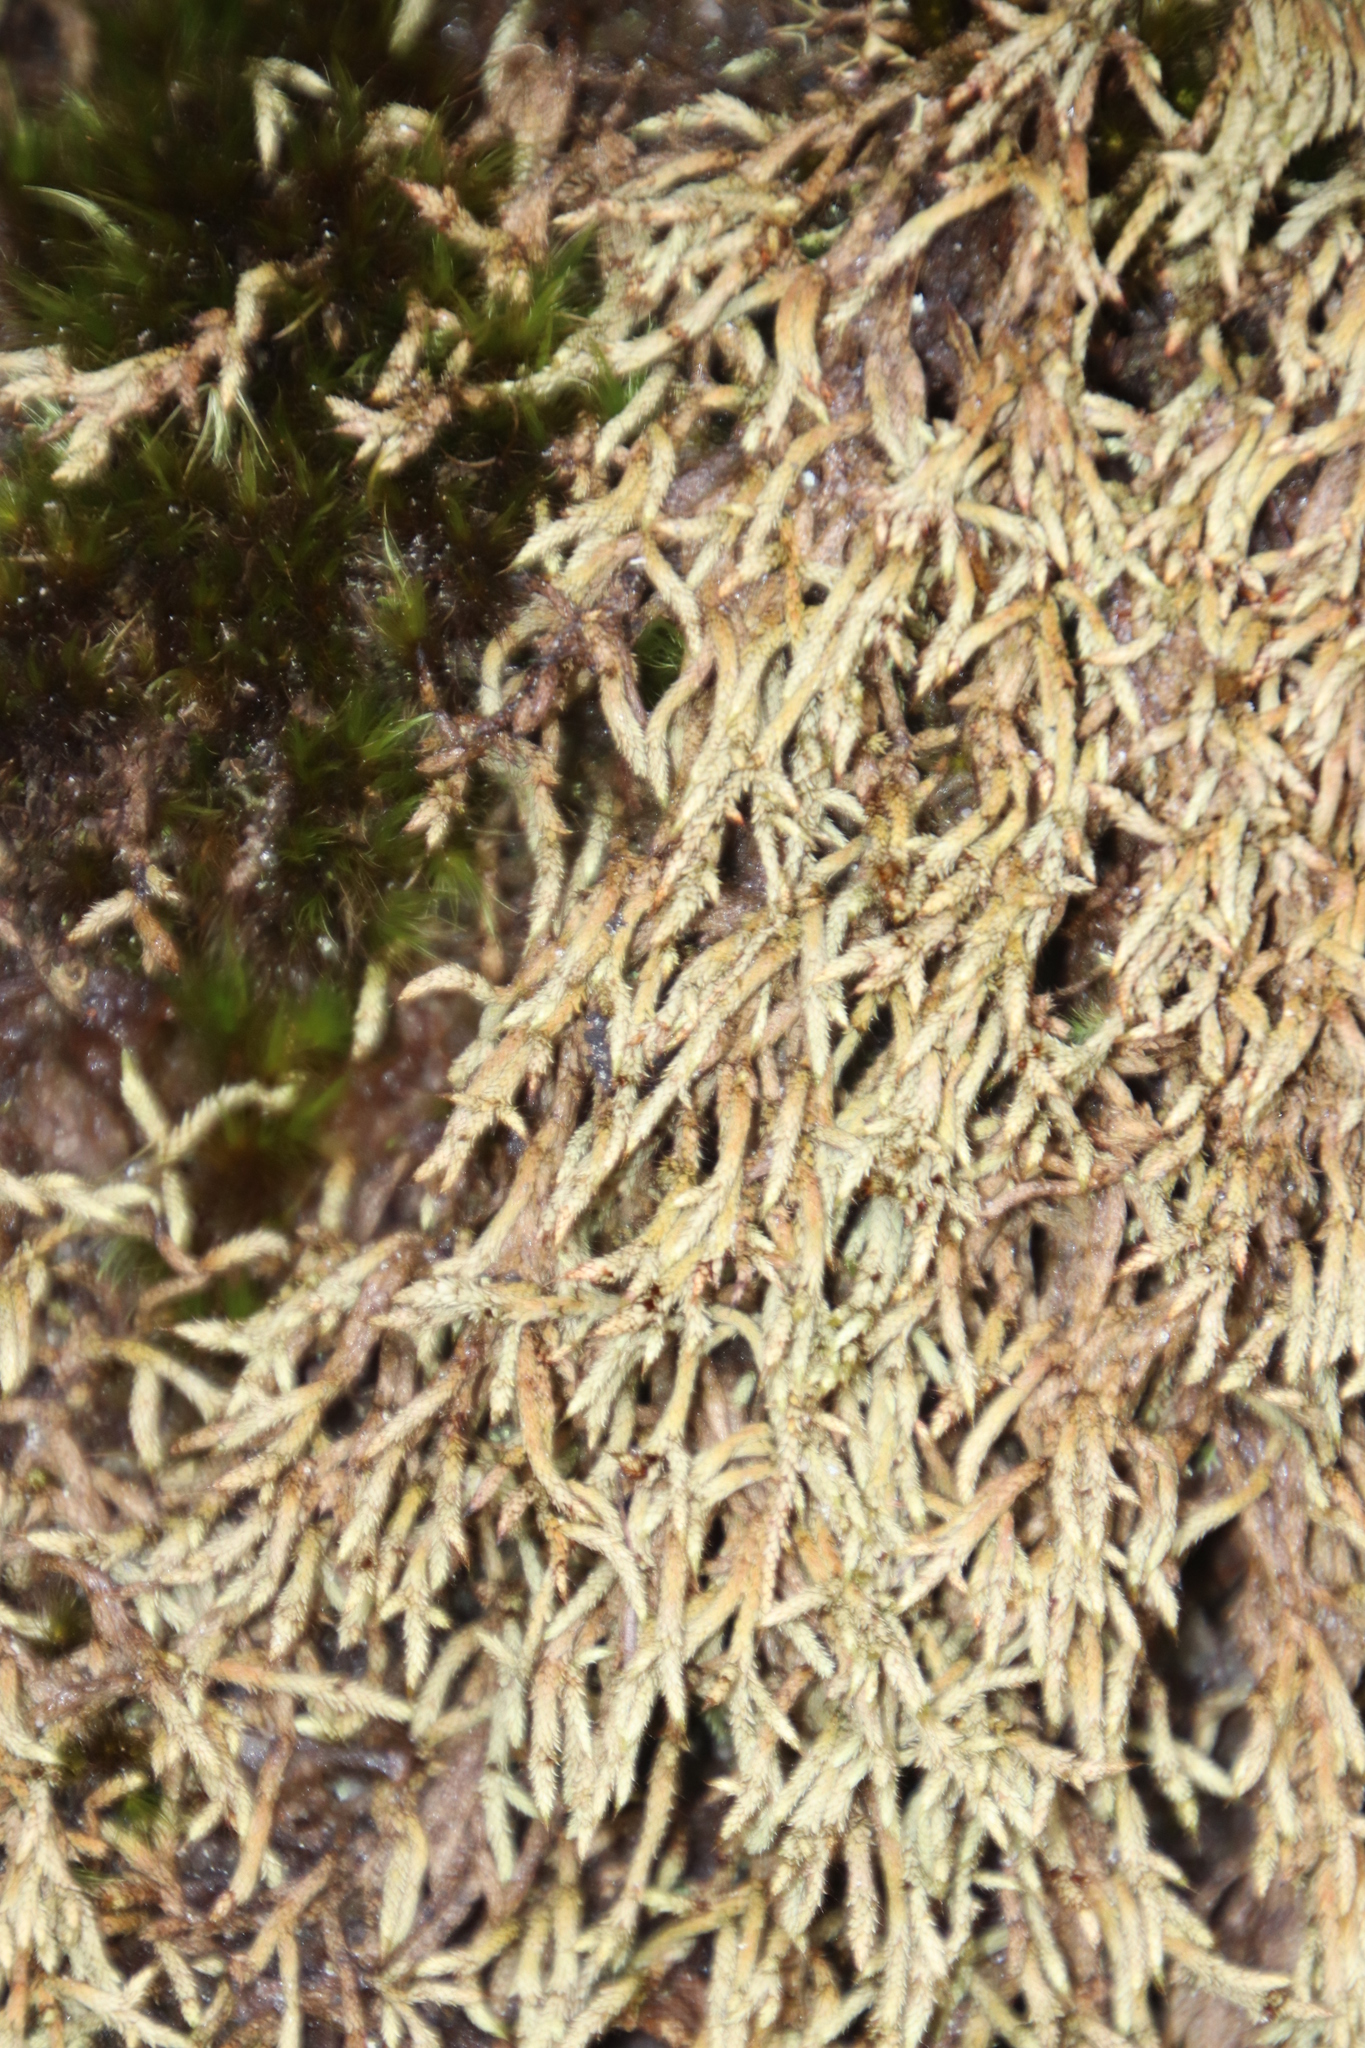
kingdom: Plantae
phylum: Bryophyta
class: Bryopsida
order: Hedwigiales
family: Hedwigiaceae
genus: Rhacocarpus
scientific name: Rhacocarpus purpurascens
